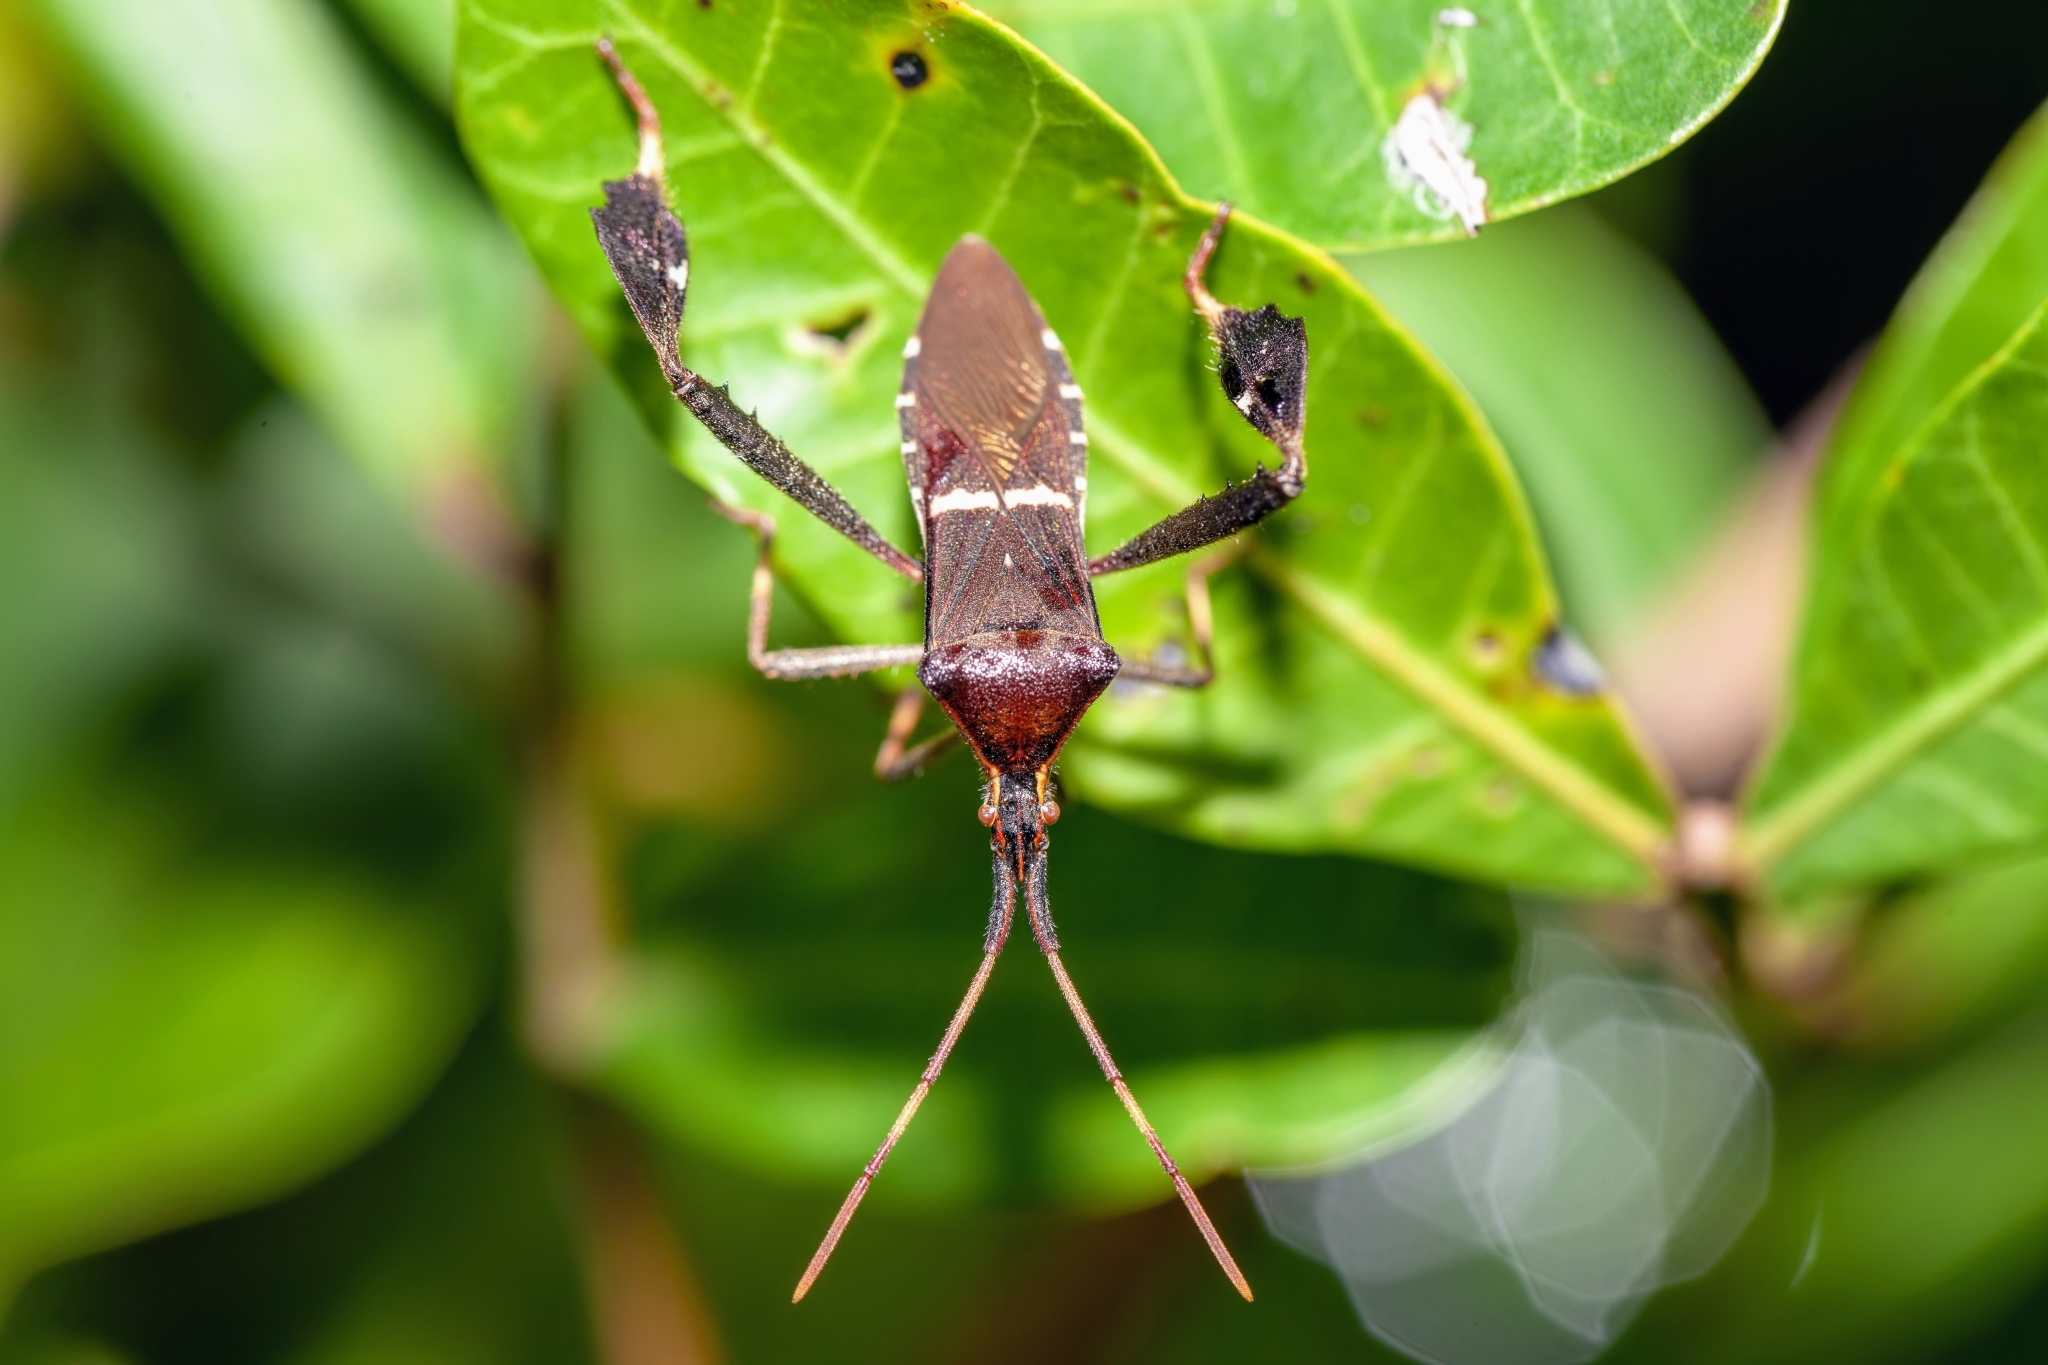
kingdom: Animalia
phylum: Arthropoda
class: Insecta
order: Hemiptera
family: Coreidae
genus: Leptoglossus
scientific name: Leptoglossus phyllopus
